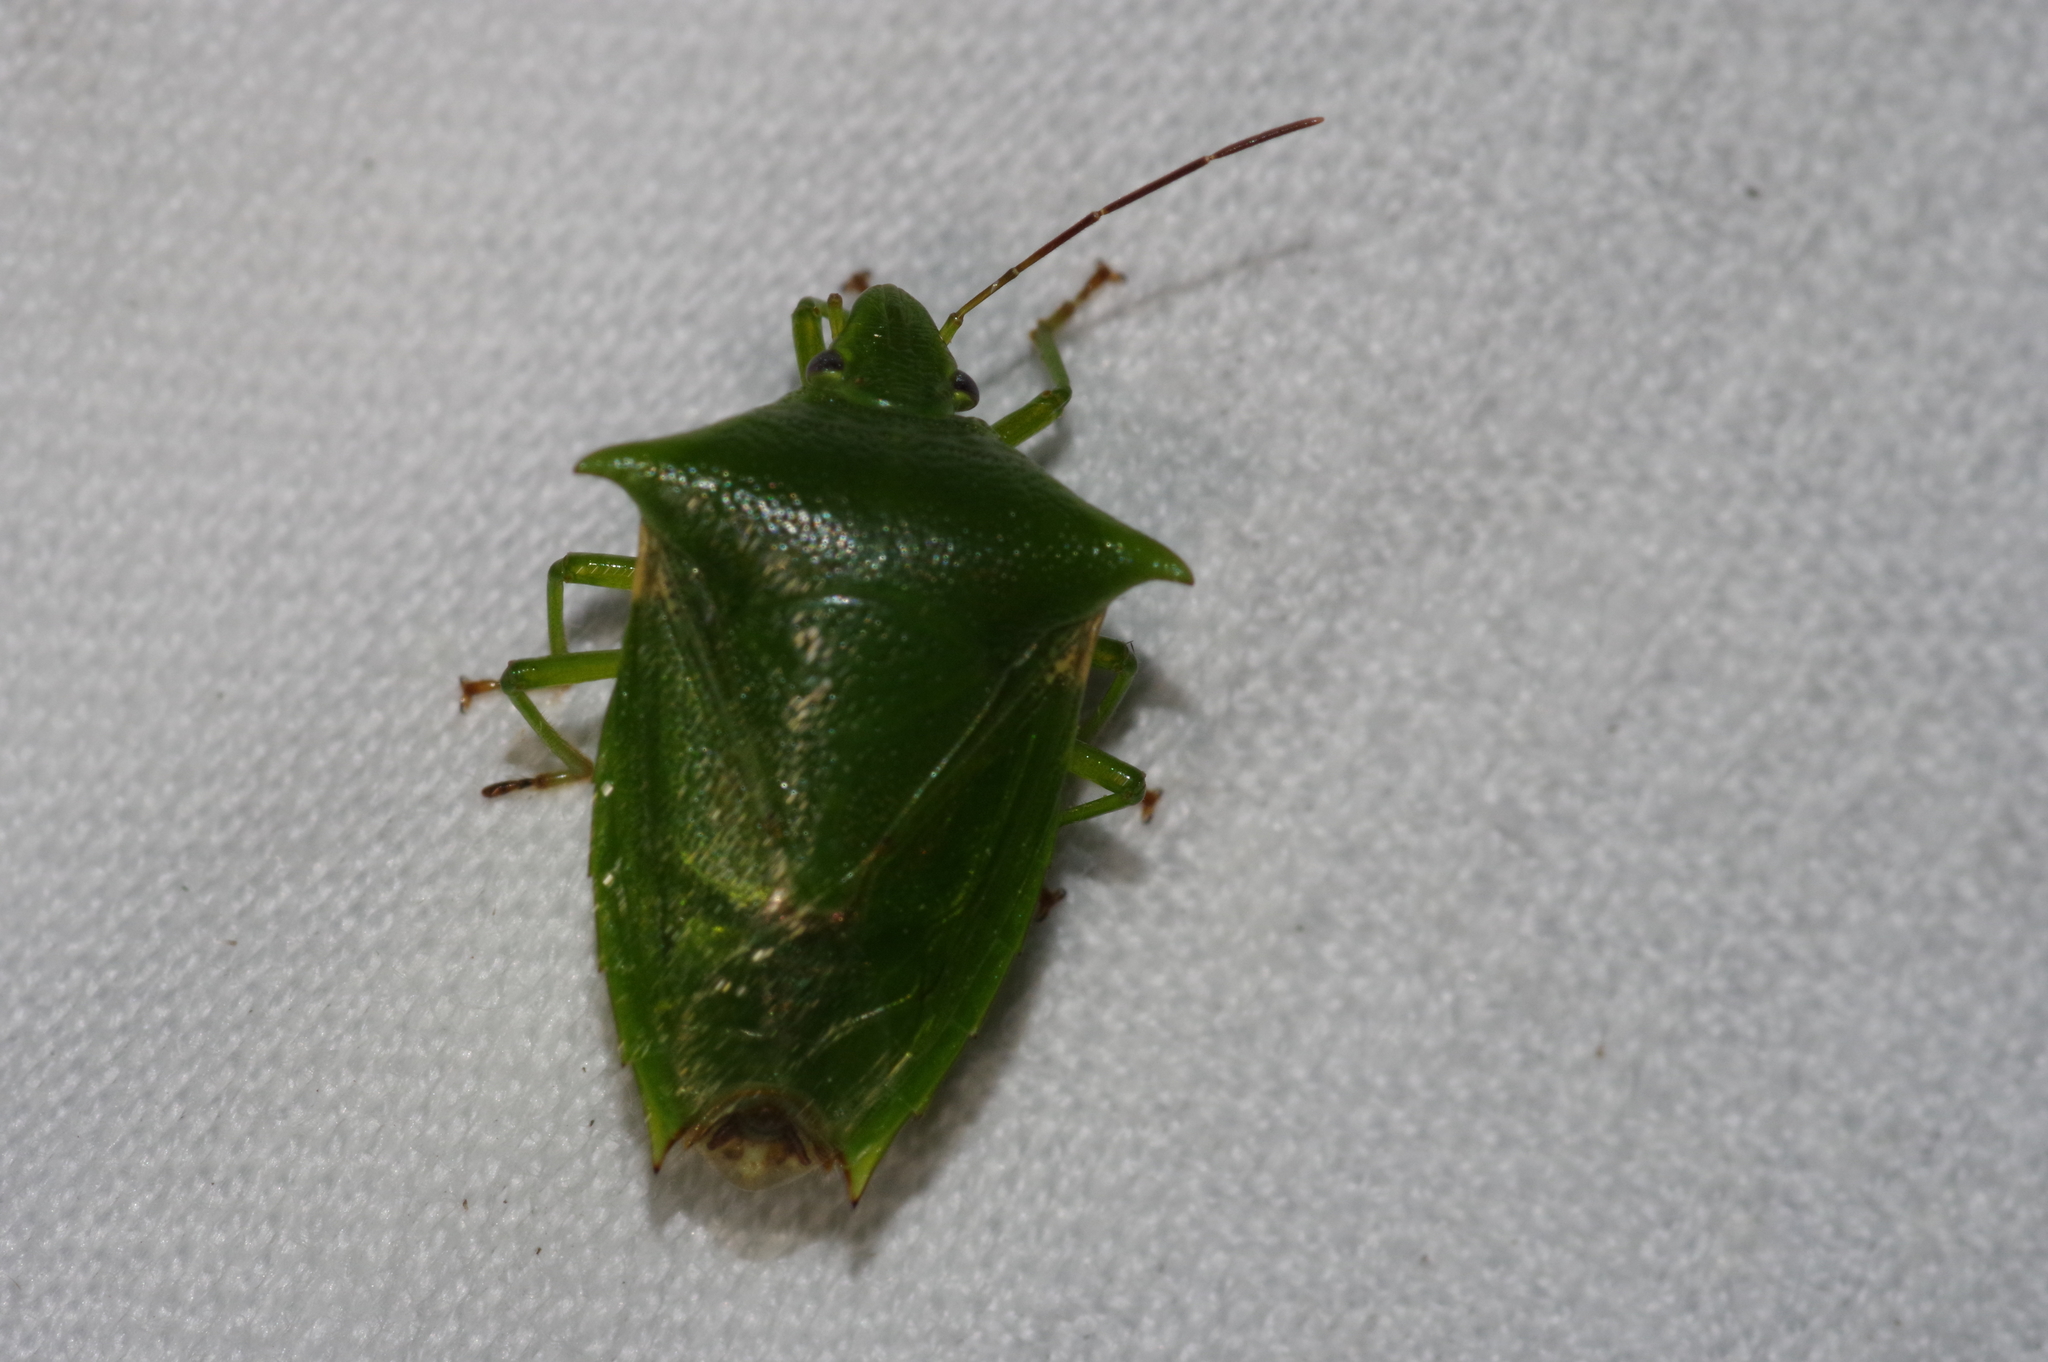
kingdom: Animalia
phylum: Arthropoda
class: Insecta
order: Hemiptera
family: Pentatomidae
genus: Vitellus
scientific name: Vitellus
